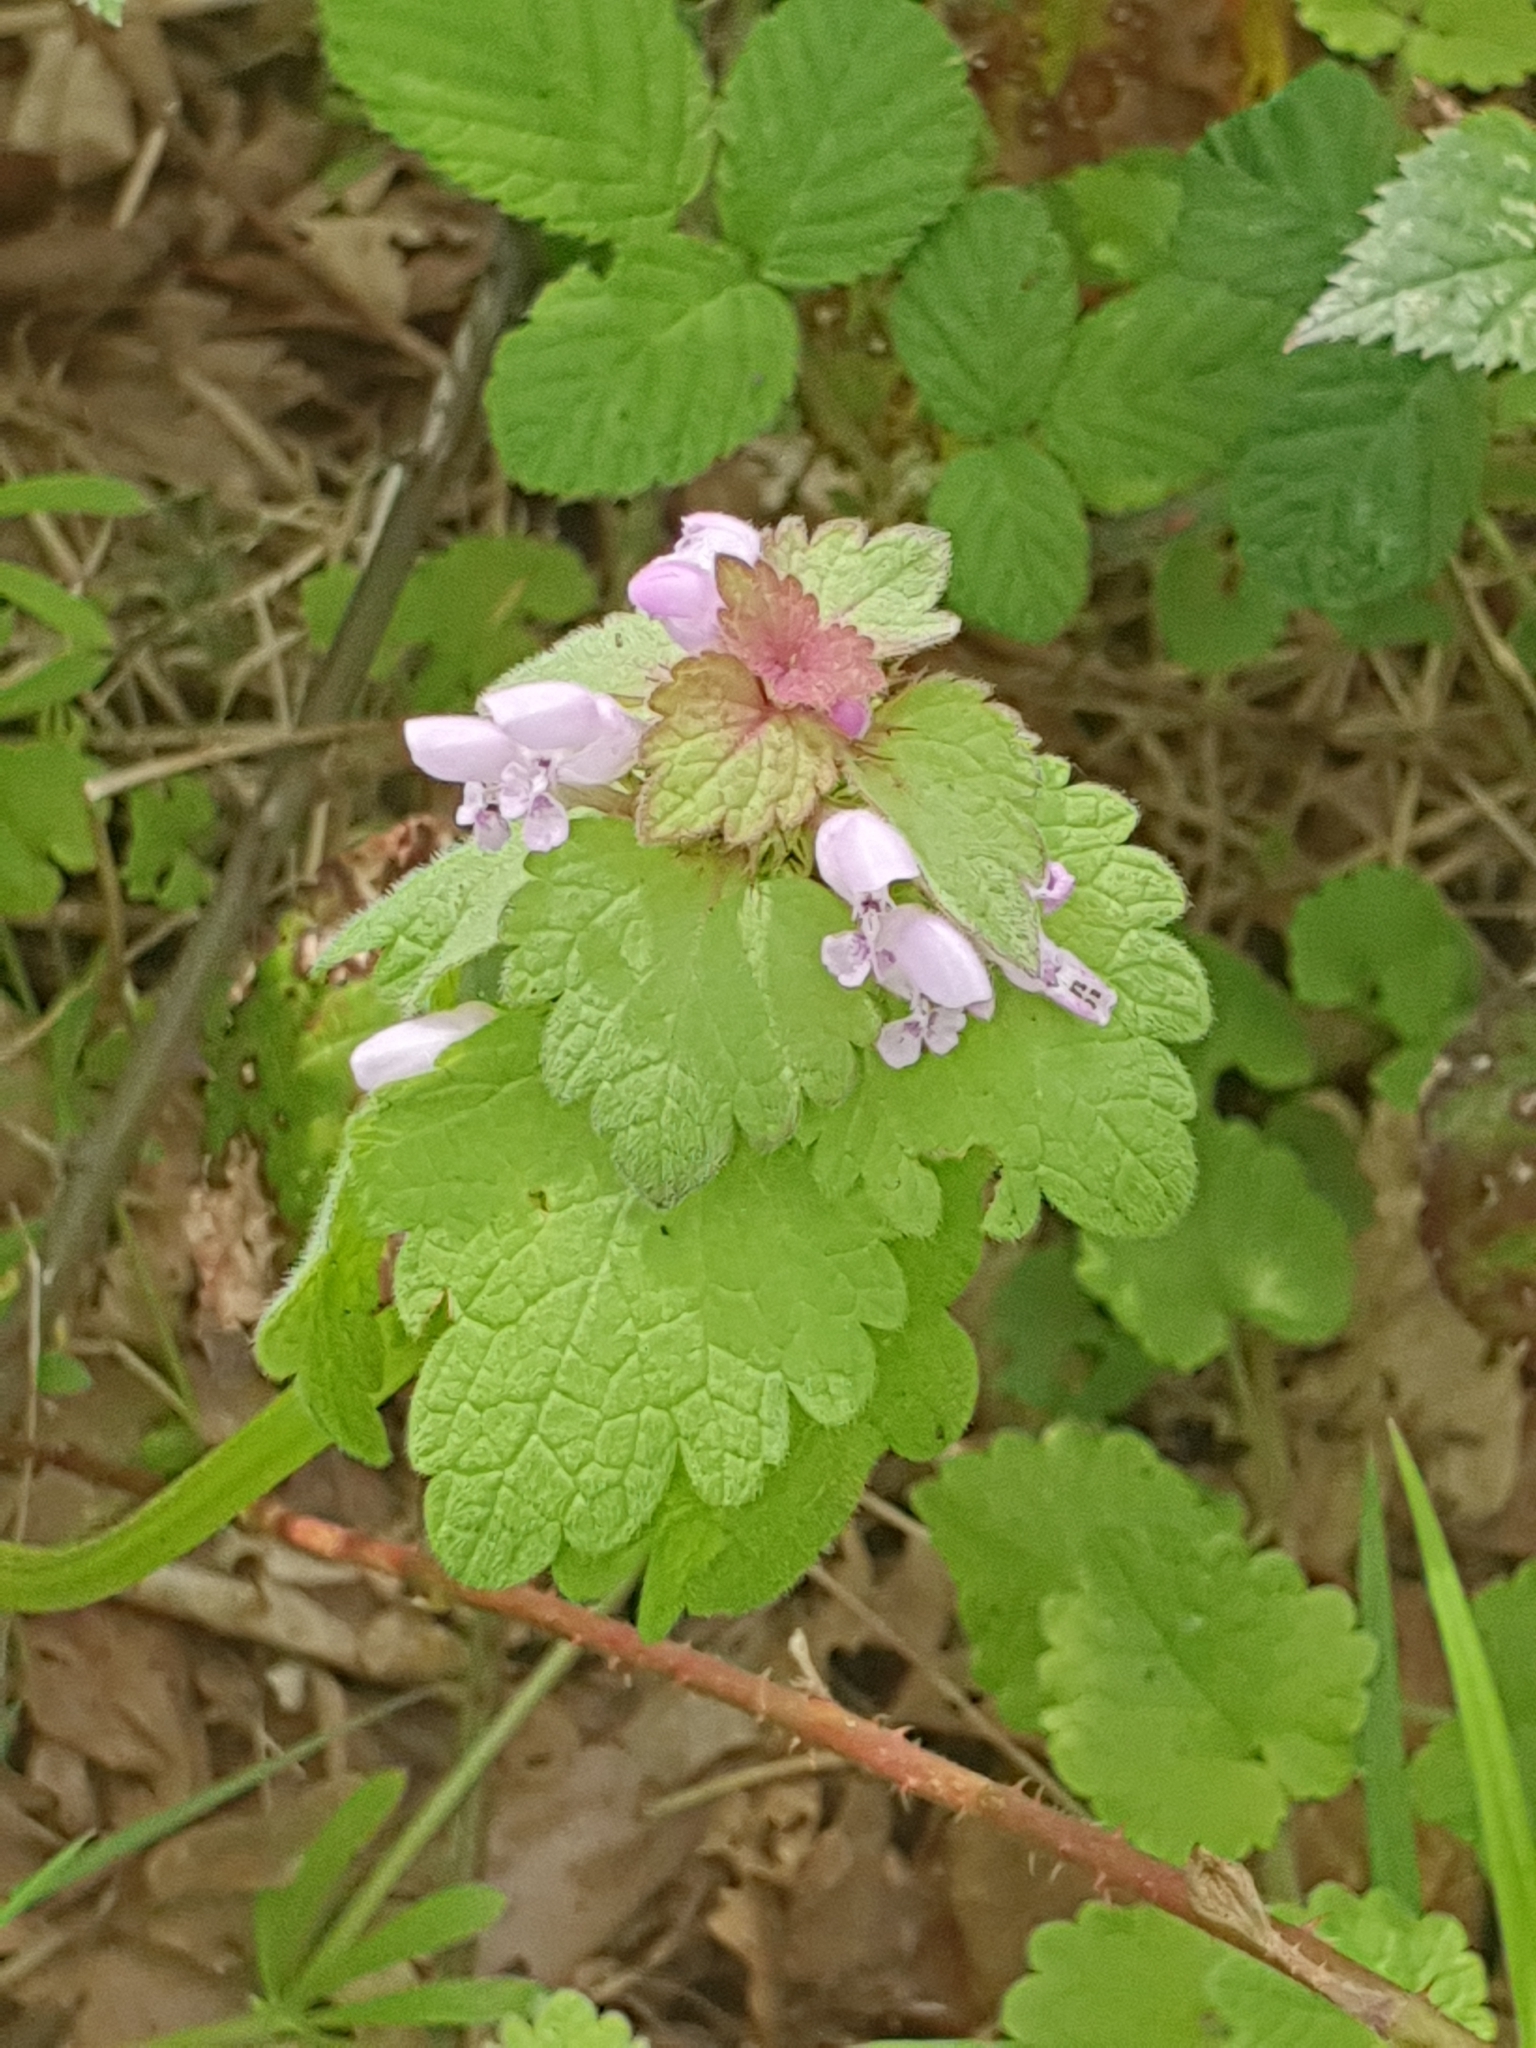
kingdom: Plantae
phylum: Tracheophyta
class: Magnoliopsida
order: Lamiales
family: Lamiaceae
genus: Lamium
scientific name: Lamium purpureum
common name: Red dead-nettle
